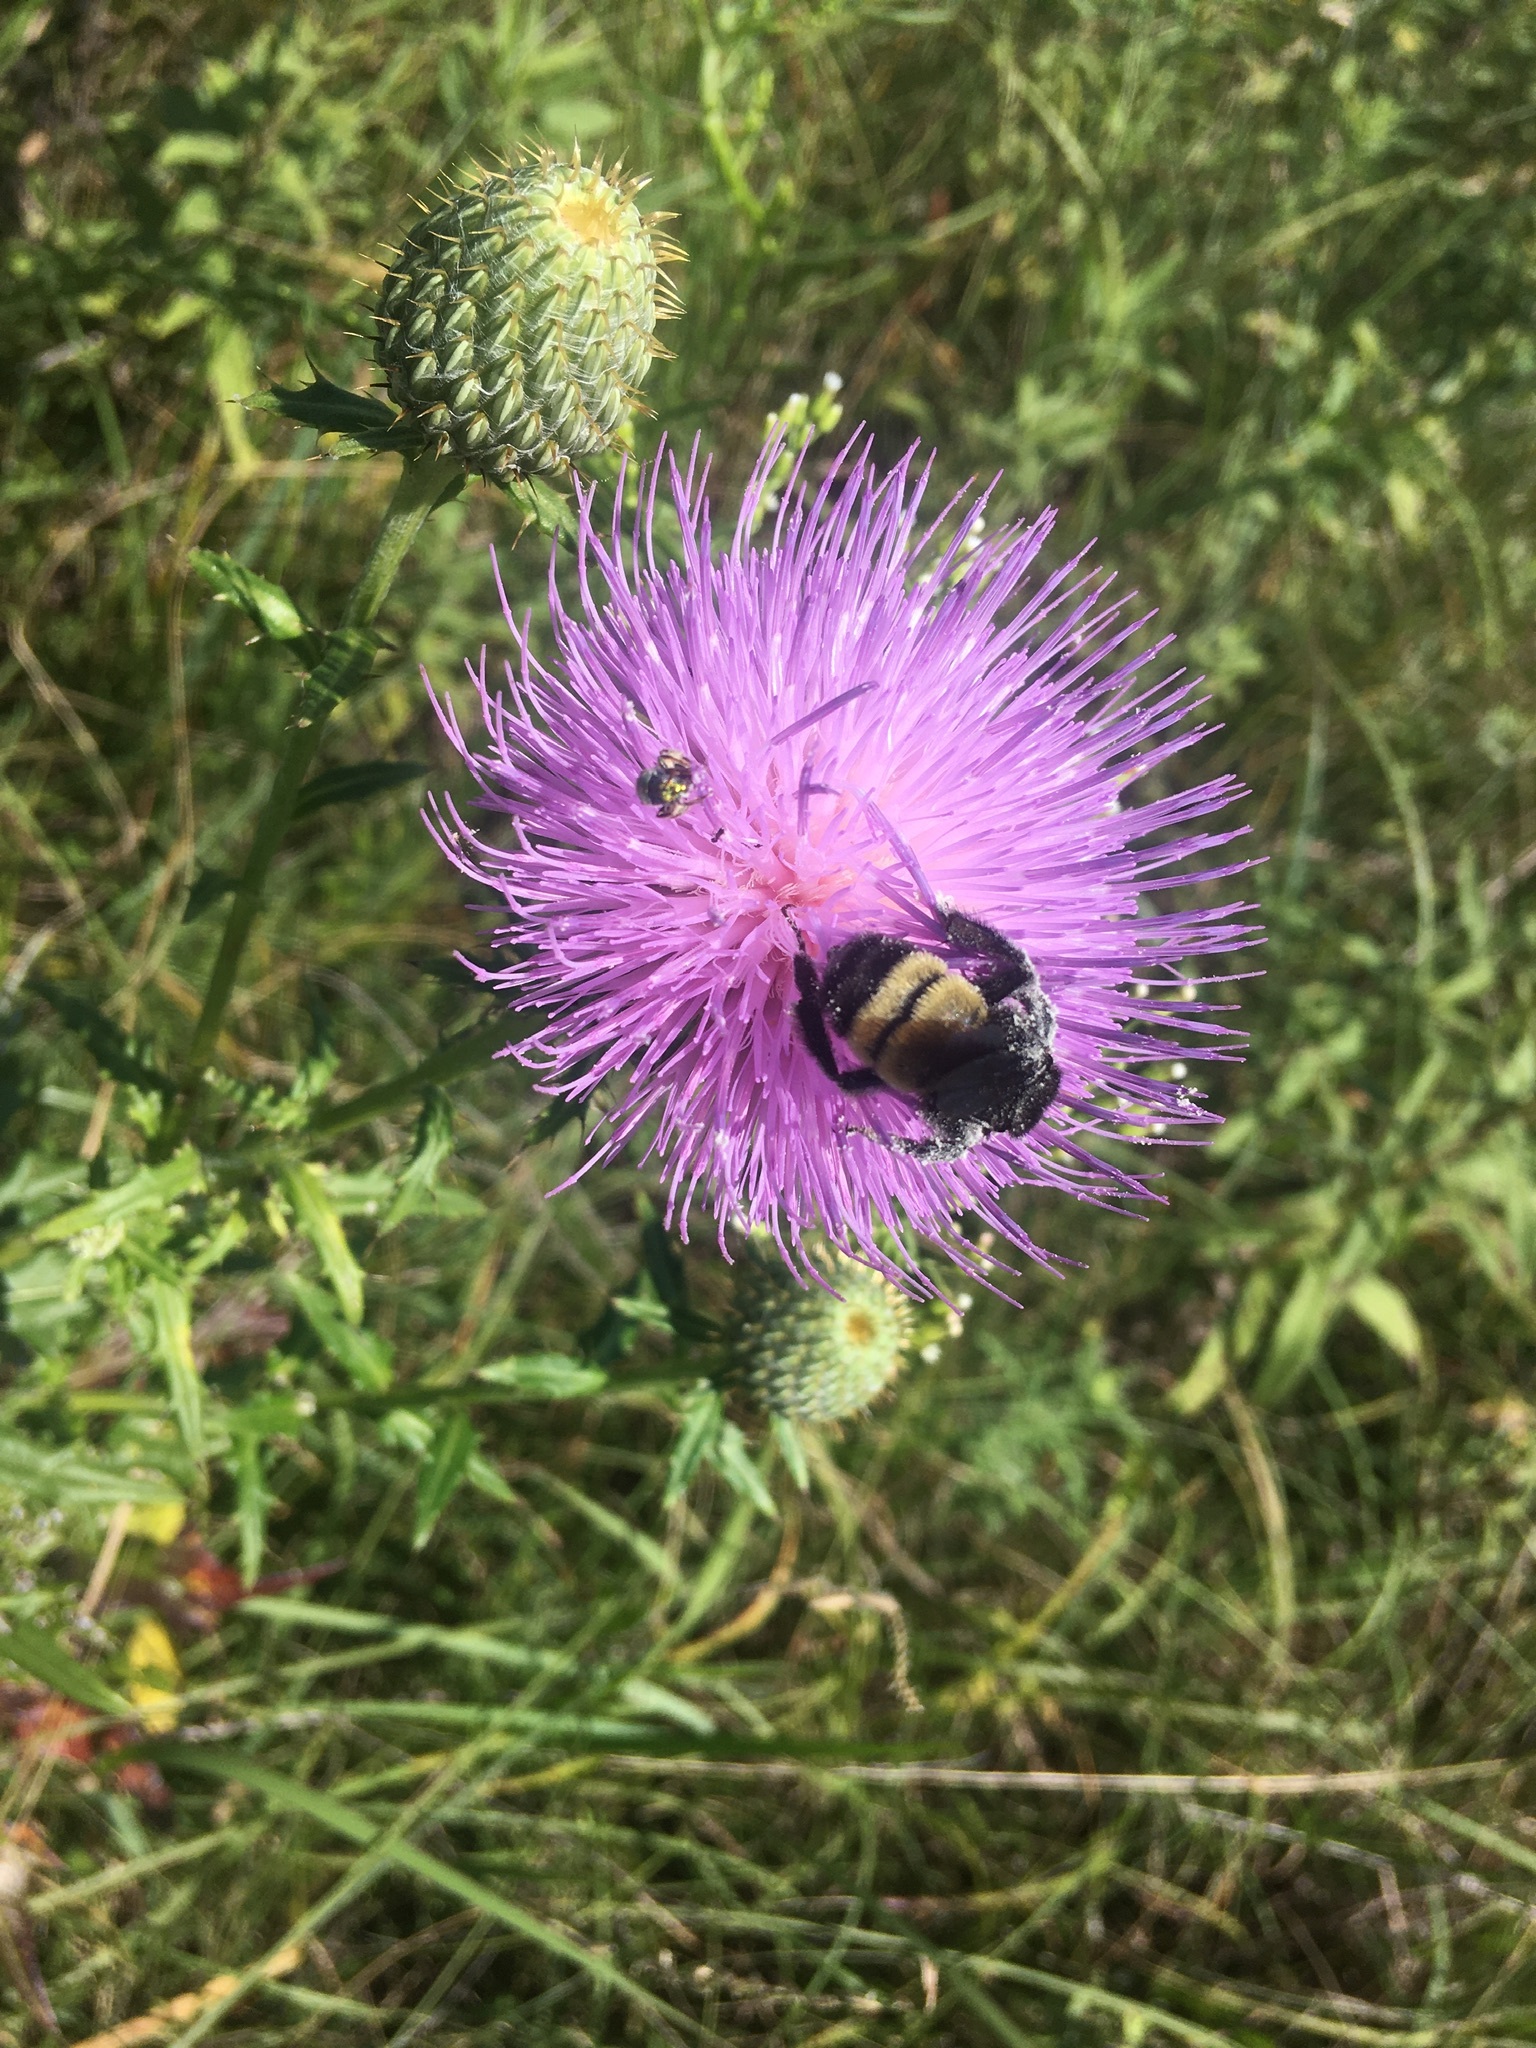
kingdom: Animalia
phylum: Arthropoda
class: Insecta
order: Hymenoptera
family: Apidae
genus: Bombus
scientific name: Bombus pensylvanicus
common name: Bumble bee
